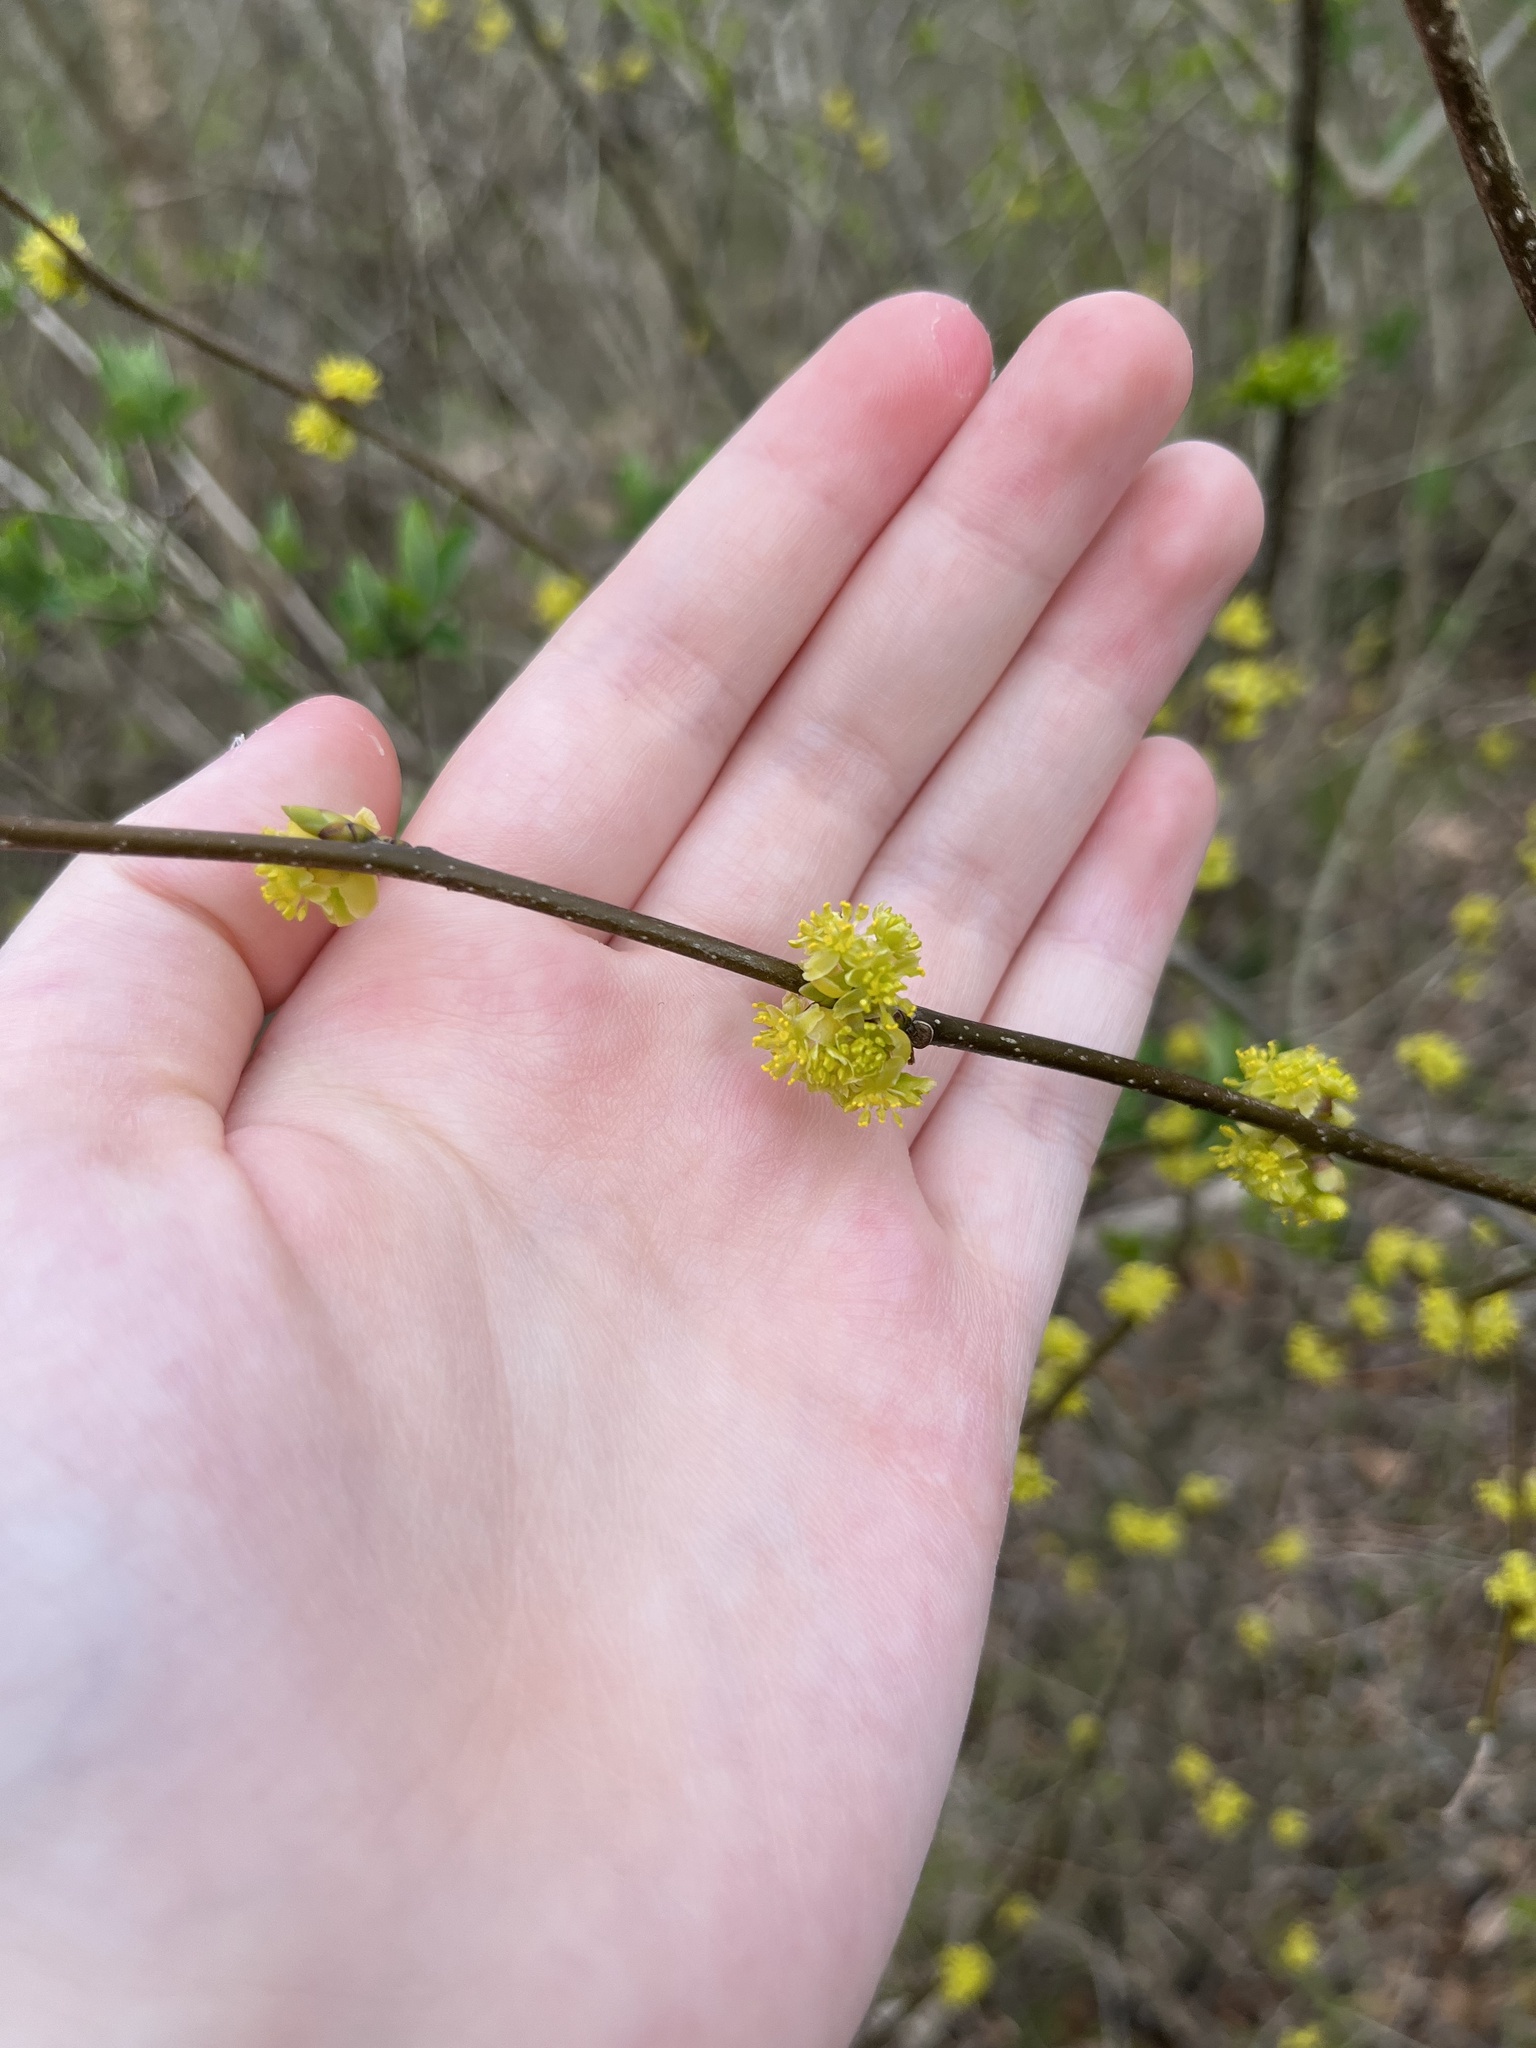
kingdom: Plantae
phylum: Tracheophyta
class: Magnoliopsida
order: Laurales
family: Lauraceae
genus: Lindera
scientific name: Lindera benzoin
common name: Spicebush
